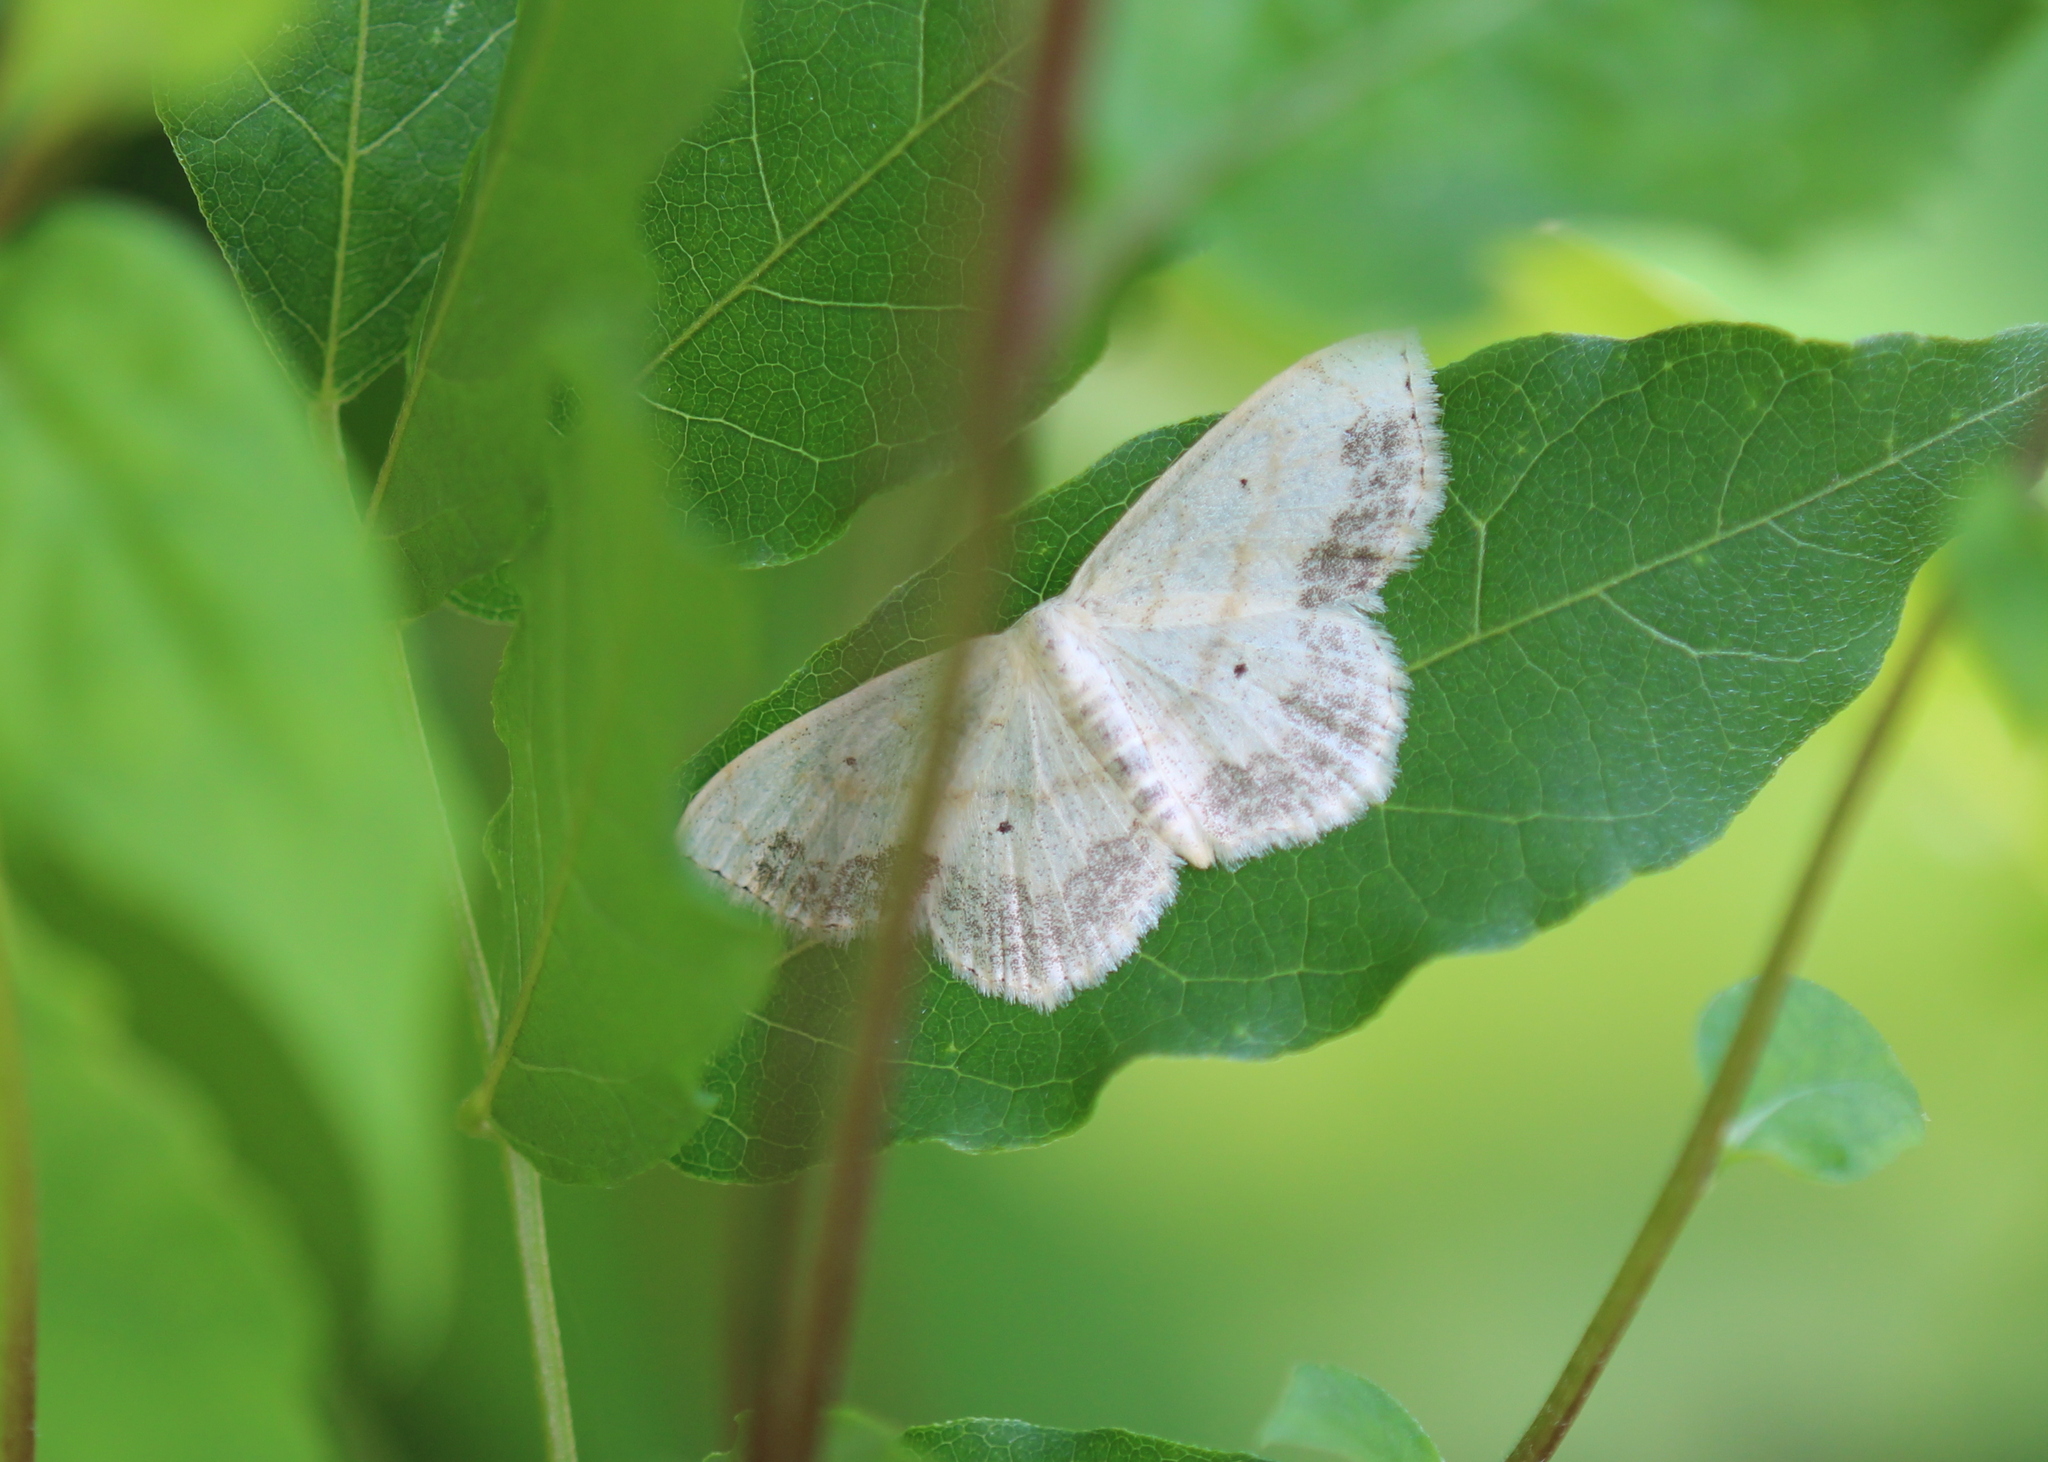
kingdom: Animalia
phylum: Arthropoda
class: Insecta
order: Lepidoptera
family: Geometridae
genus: Scopula
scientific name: Scopula limboundata
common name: Large lace border
